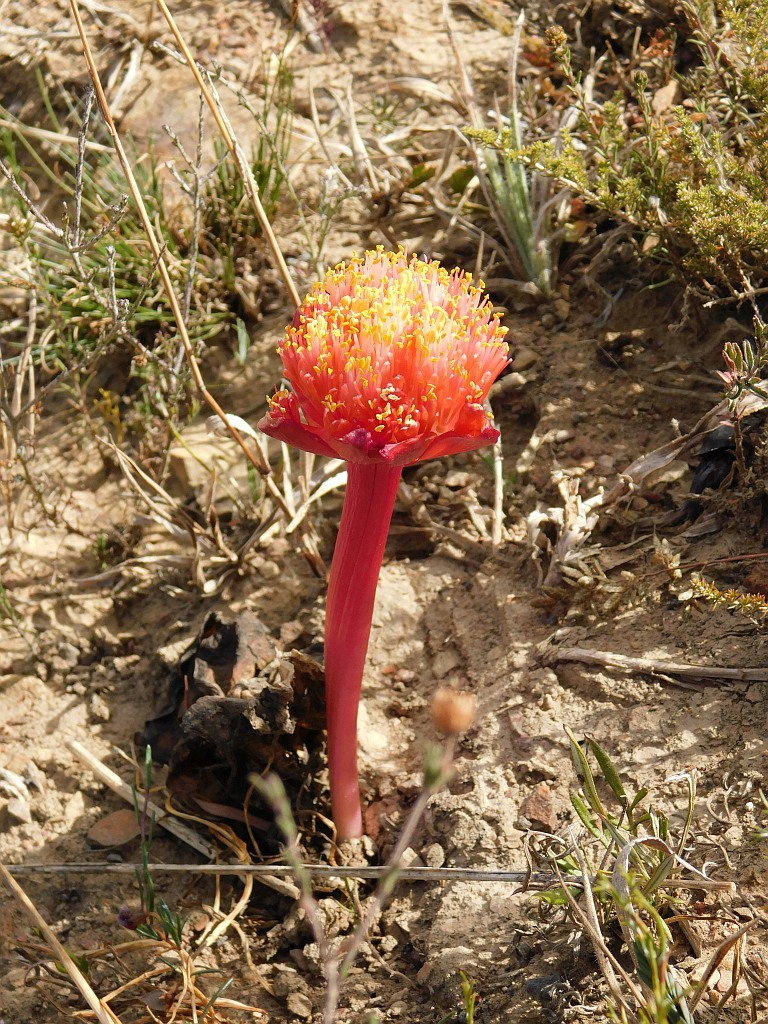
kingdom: Plantae
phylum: Tracheophyta
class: Liliopsida
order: Asparagales
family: Amaryllidaceae
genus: Haemanthus
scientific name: Haemanthus sanguineus
